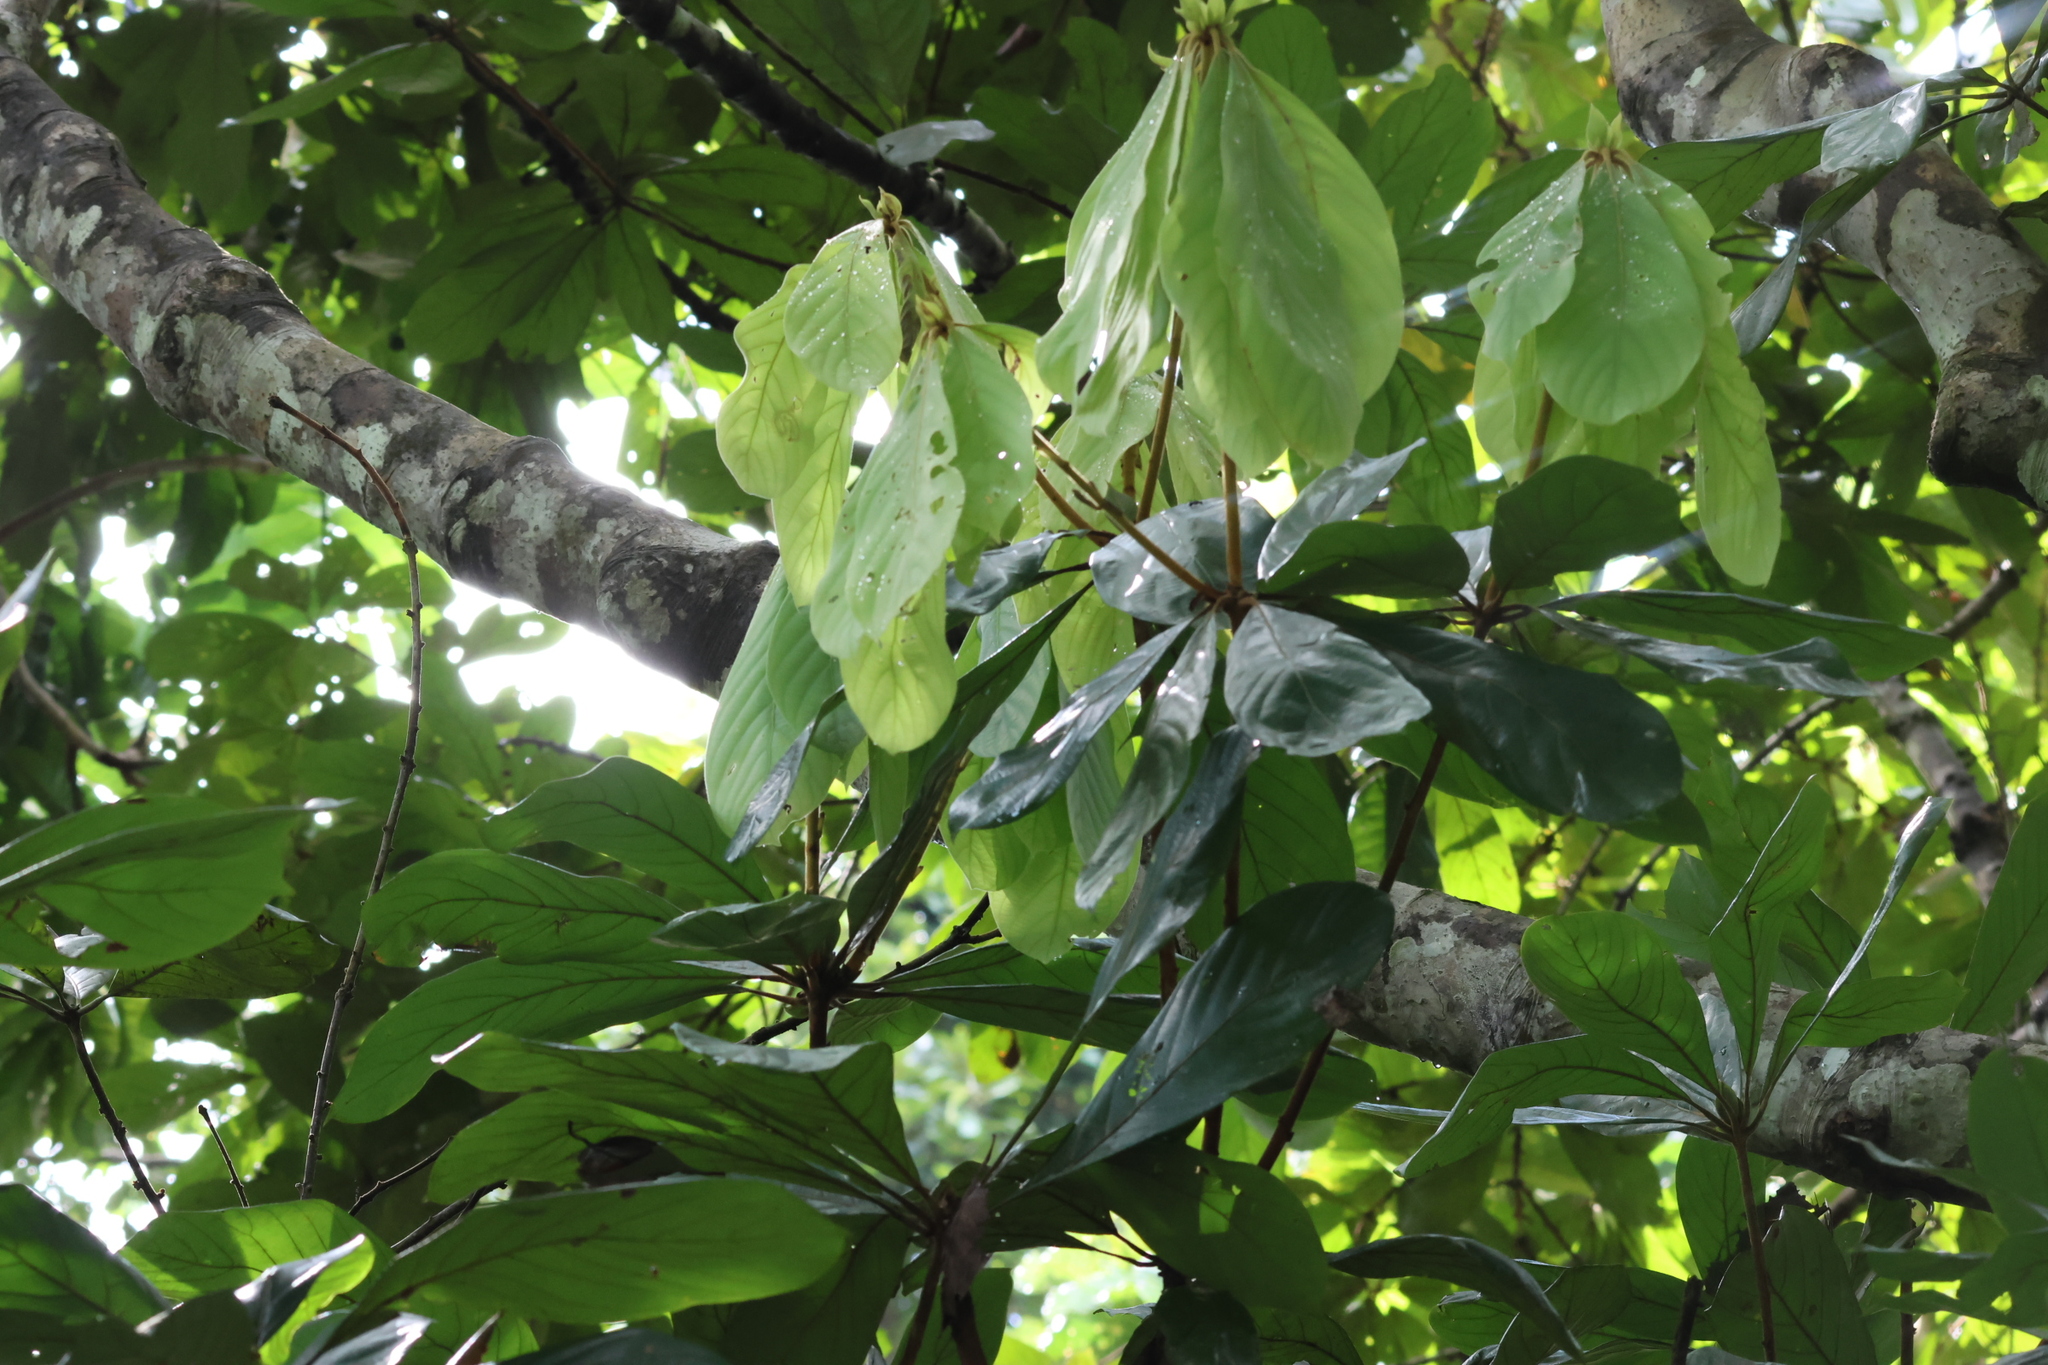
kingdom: Plantae
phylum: Tracheophyta
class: Magnoliopsida
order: Laurales
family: Lauraceae
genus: Actinodaphne
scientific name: Actinodaphne sesquipedalis
